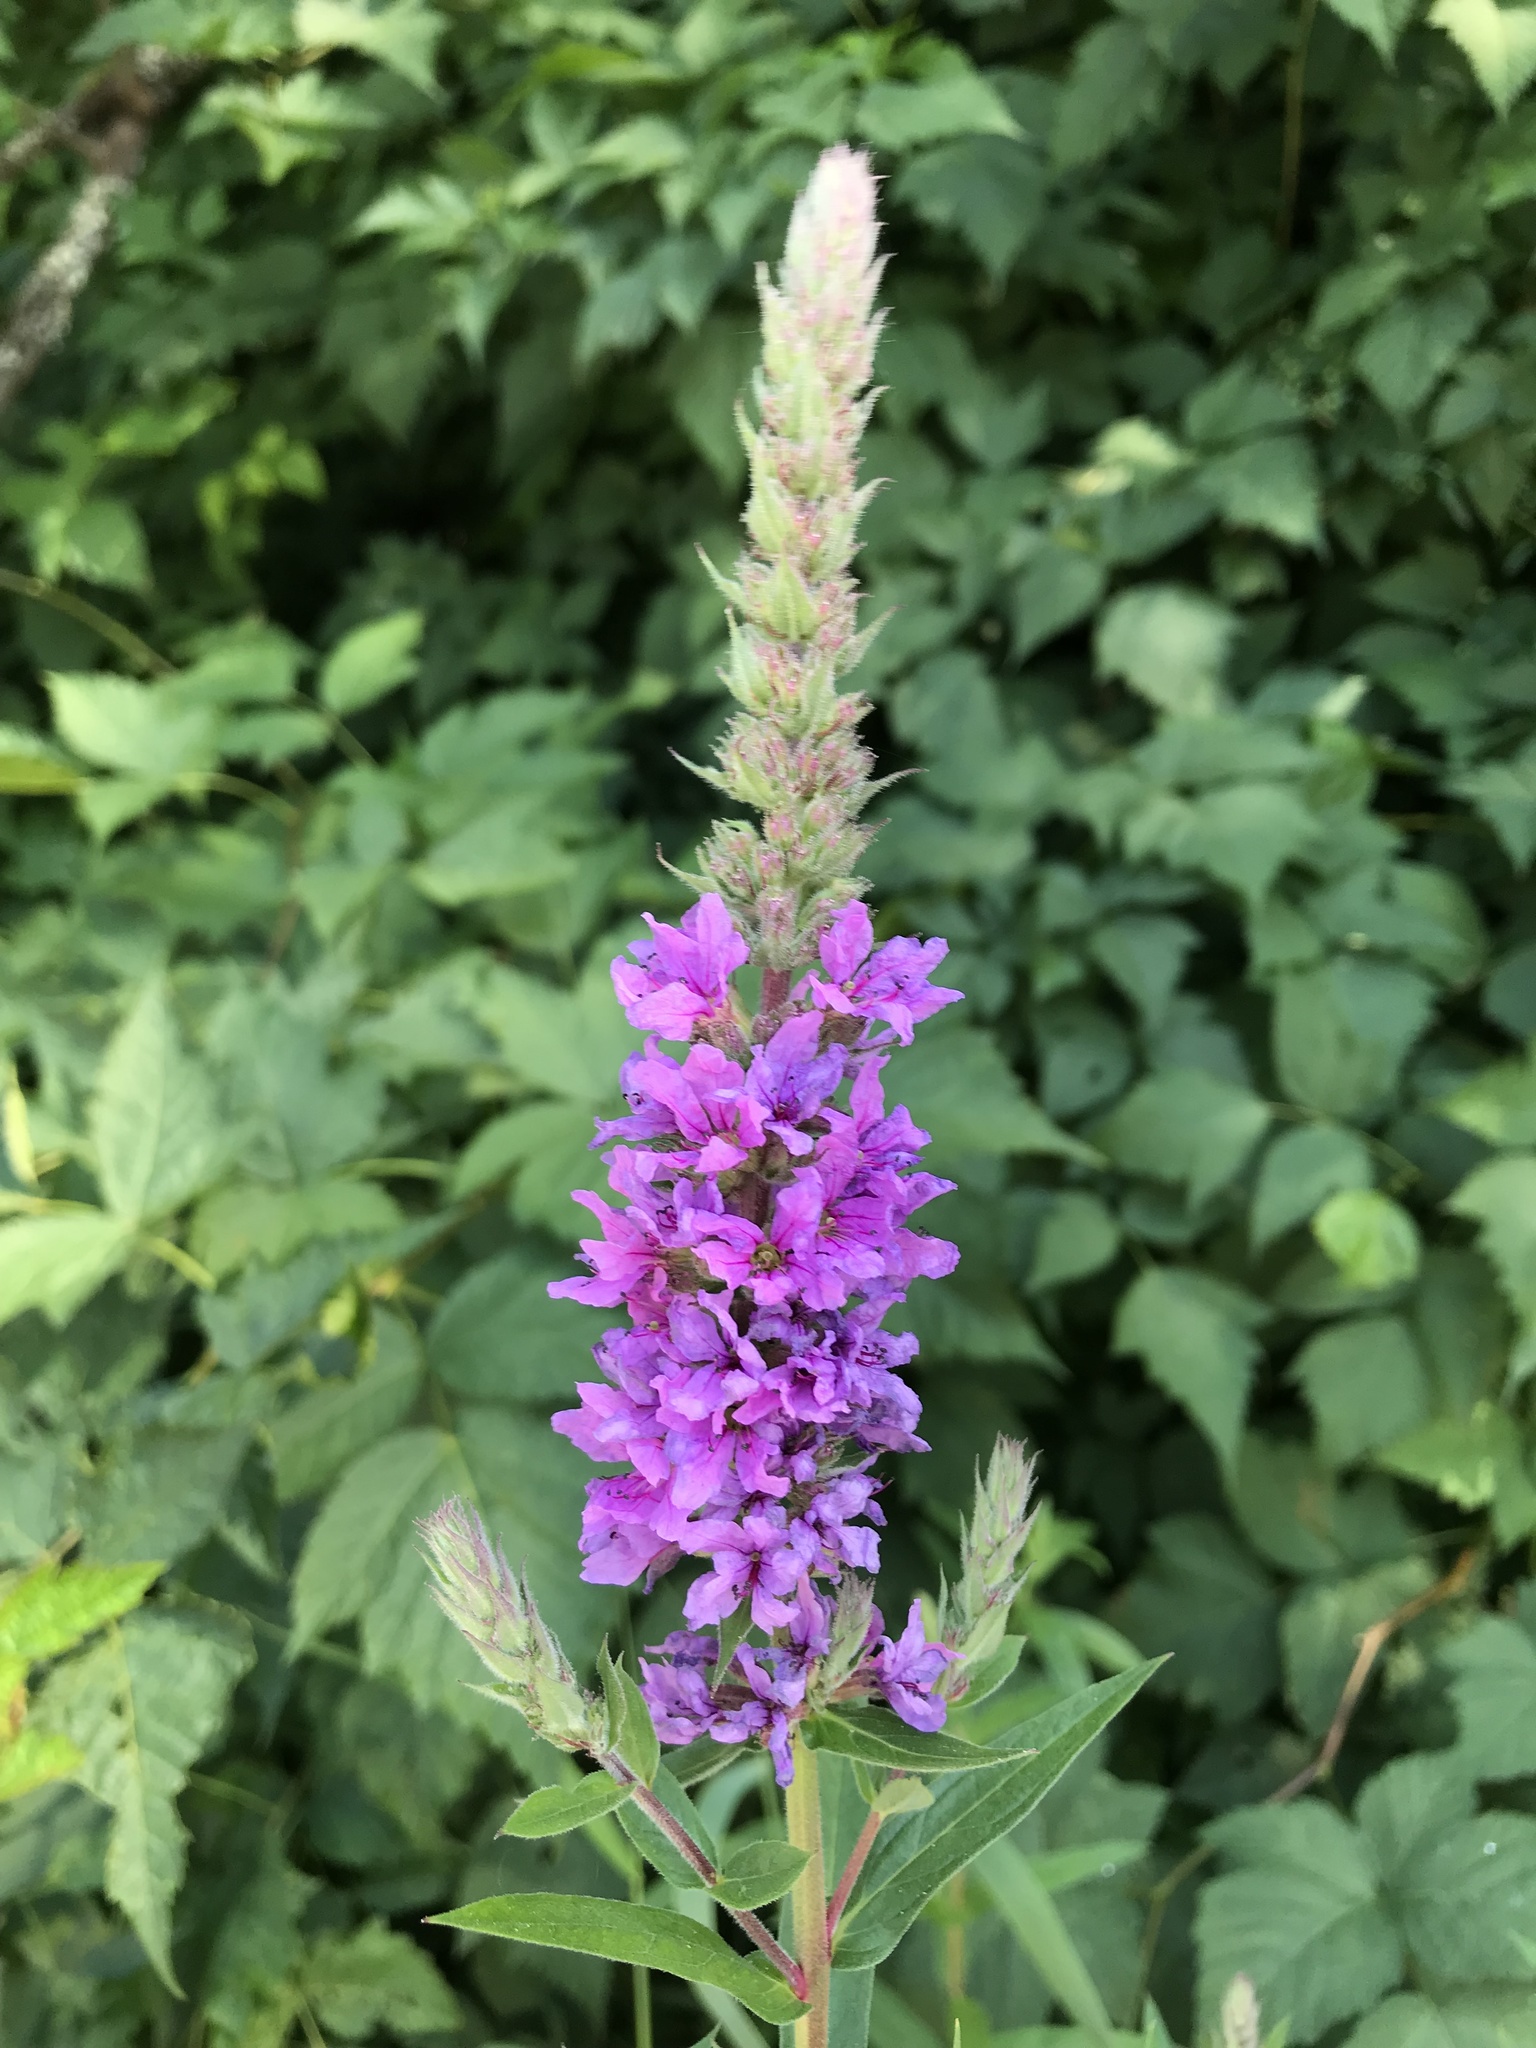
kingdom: Plantae
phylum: Tracheophyta
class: Magnoliopsida
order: Myrtales
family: Lythraceae
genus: Lythrum
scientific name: Lythrum salicaria
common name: Purple loosestrife
